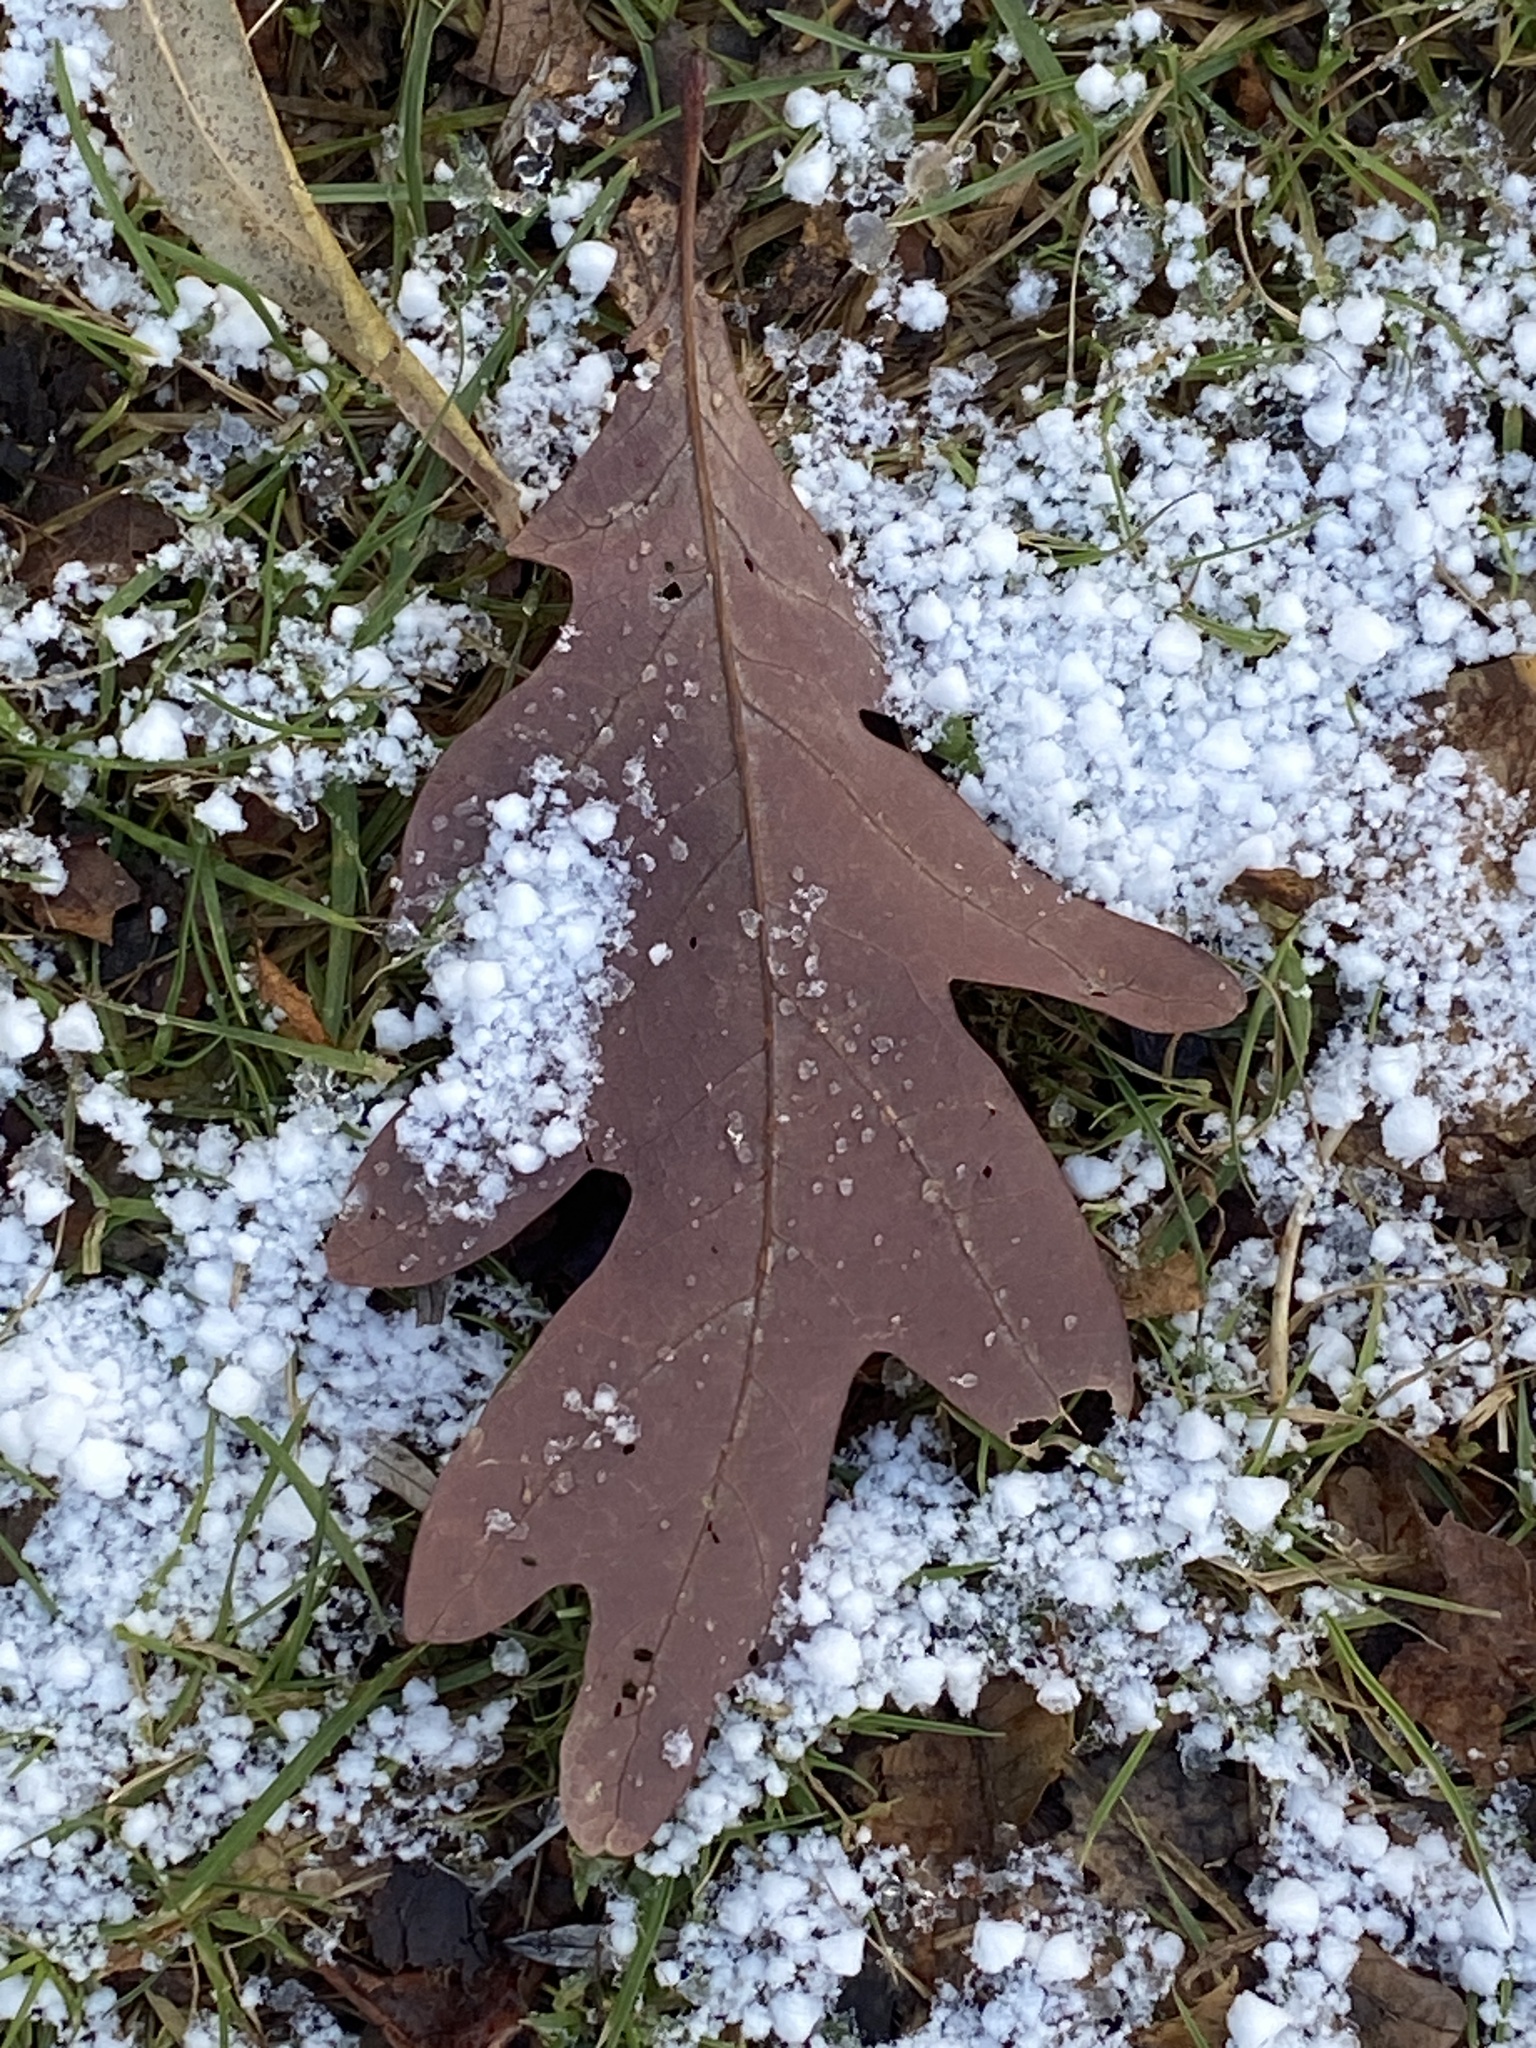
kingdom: Plantae
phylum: Tracheophyta
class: Magnoliopsida
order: Fagales
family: Fagaceae
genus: Quercus
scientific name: Quercus alba
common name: White oak
